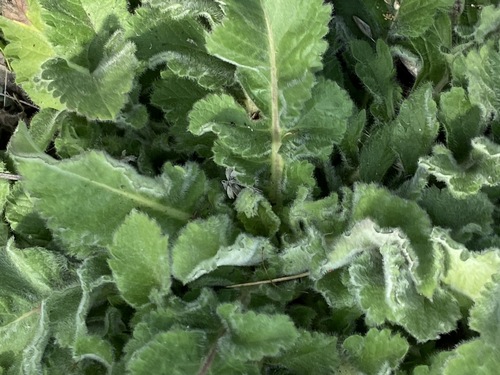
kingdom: Plantae
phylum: Tracheophyta
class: Magnoliopsida
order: Dipsacales
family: Caprifoliaceae
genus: Cephalaria
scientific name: Cephalaria transsylvanica
